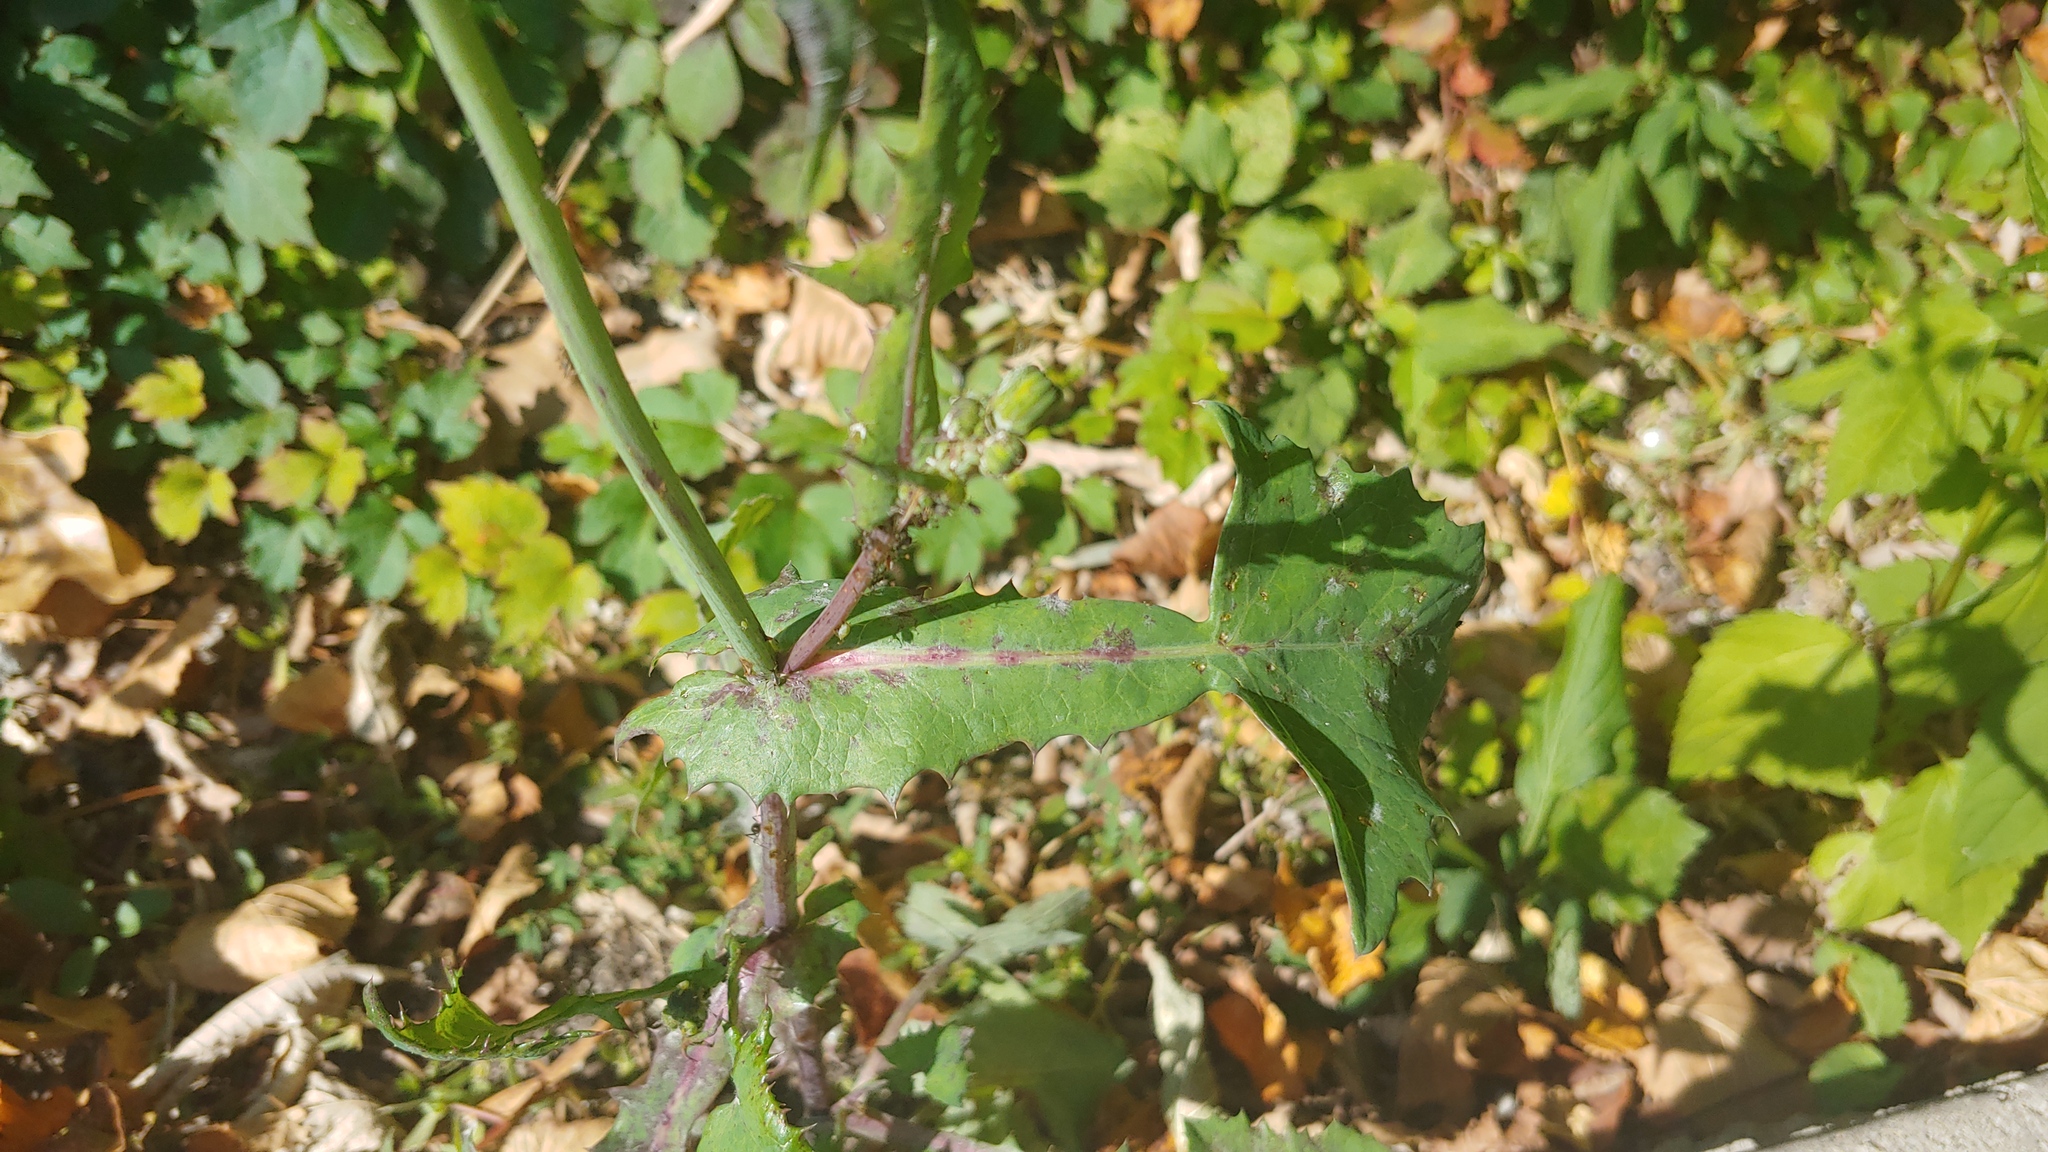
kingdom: Plantae
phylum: Tracheophyta
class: Magnoliopsida
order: Asterales
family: Asteraceae
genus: Sonchus
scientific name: Sonchus oleraceus
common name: Common sowthistle
